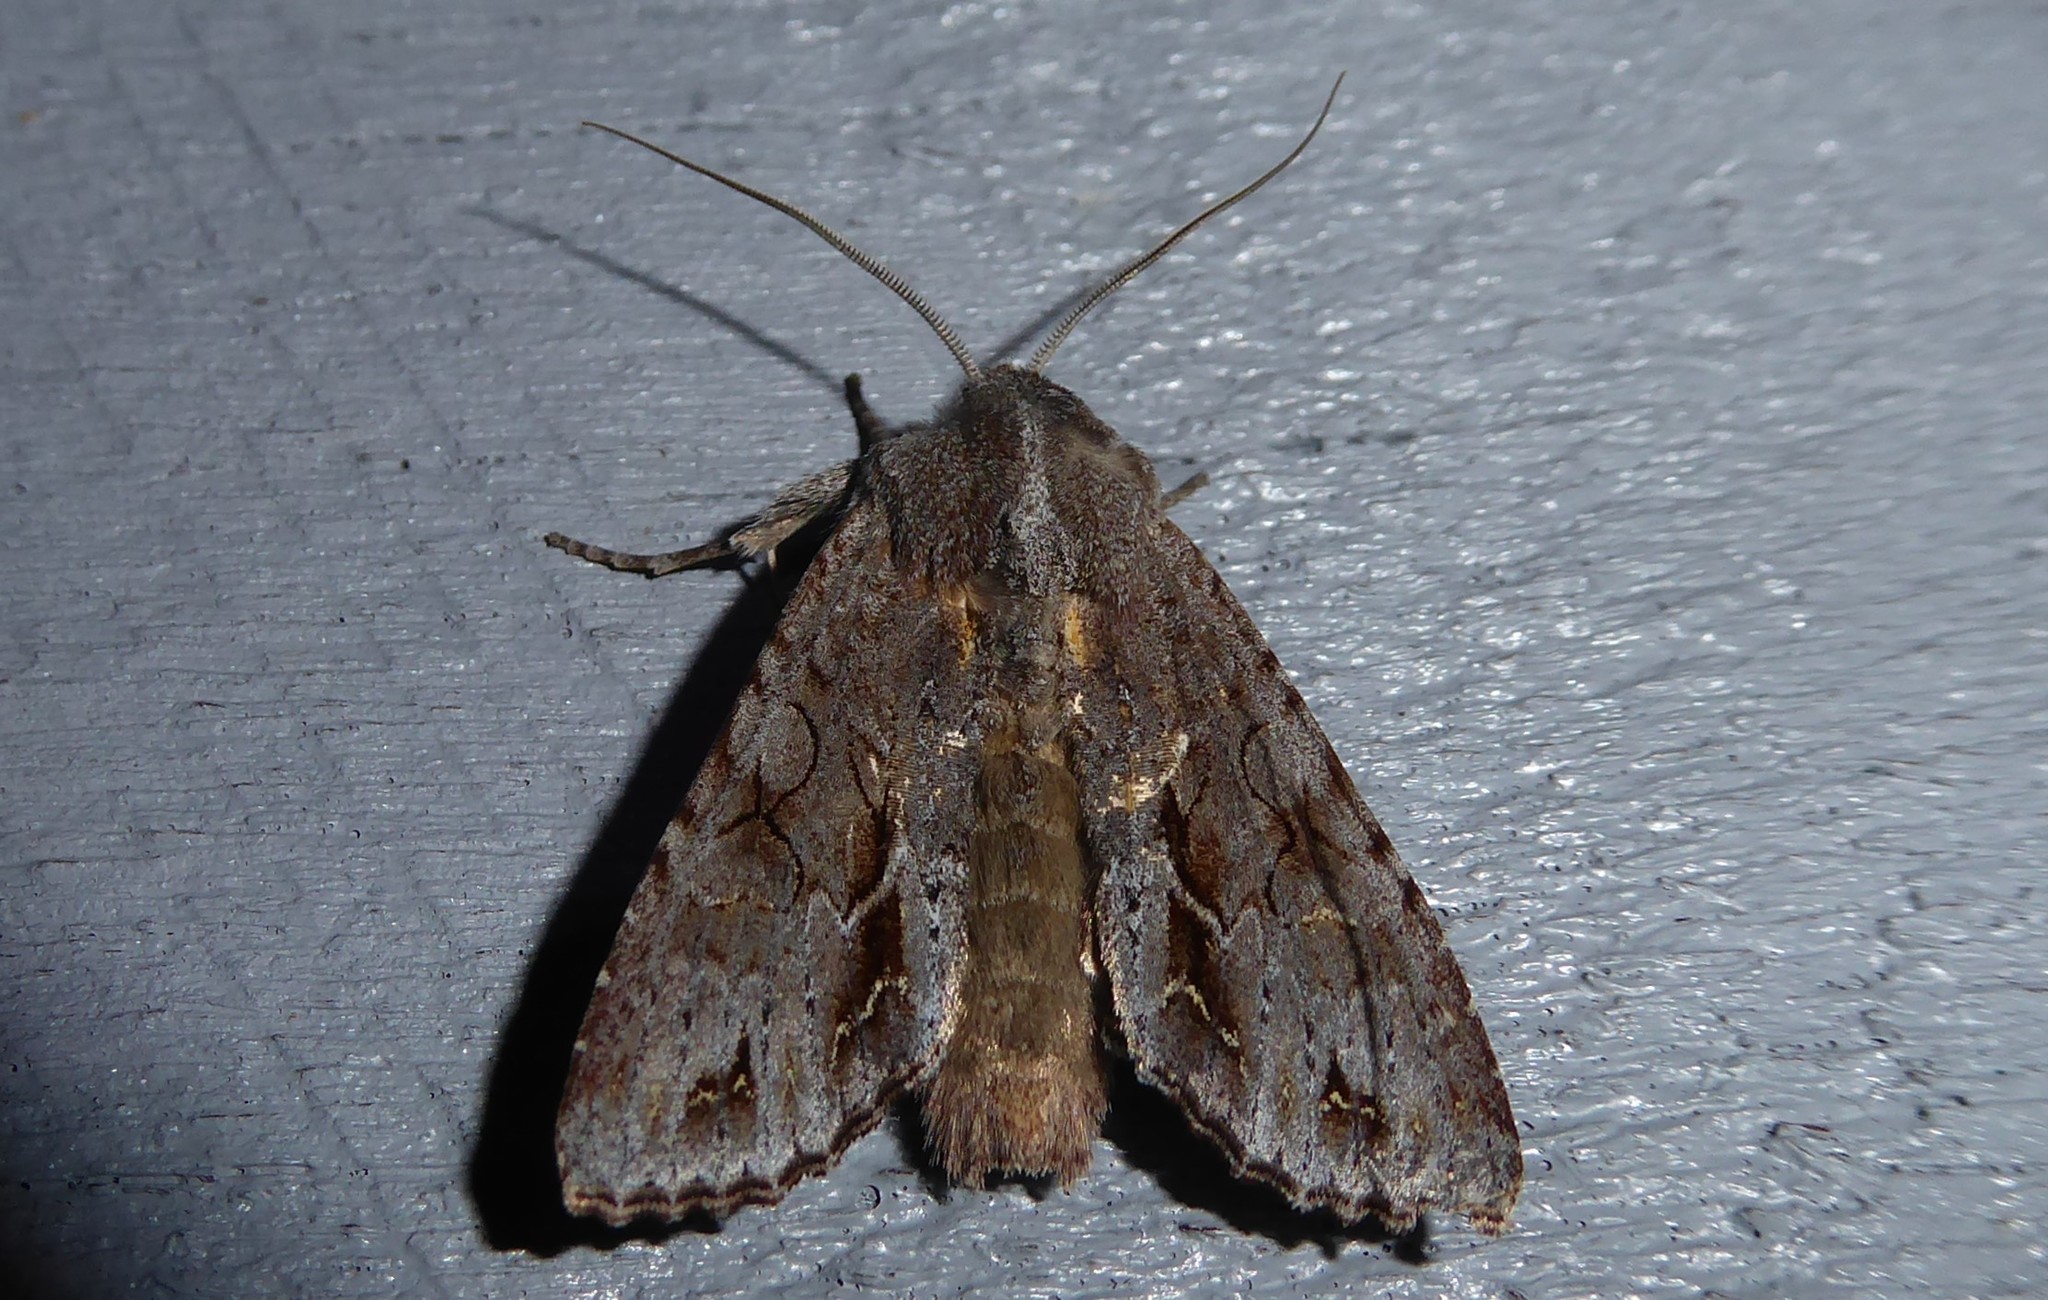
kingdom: Animalia
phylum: Arthropoda
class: Insecta
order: Lepidoptera
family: Noctuidae
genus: Ichneutica
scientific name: Ichneutica
